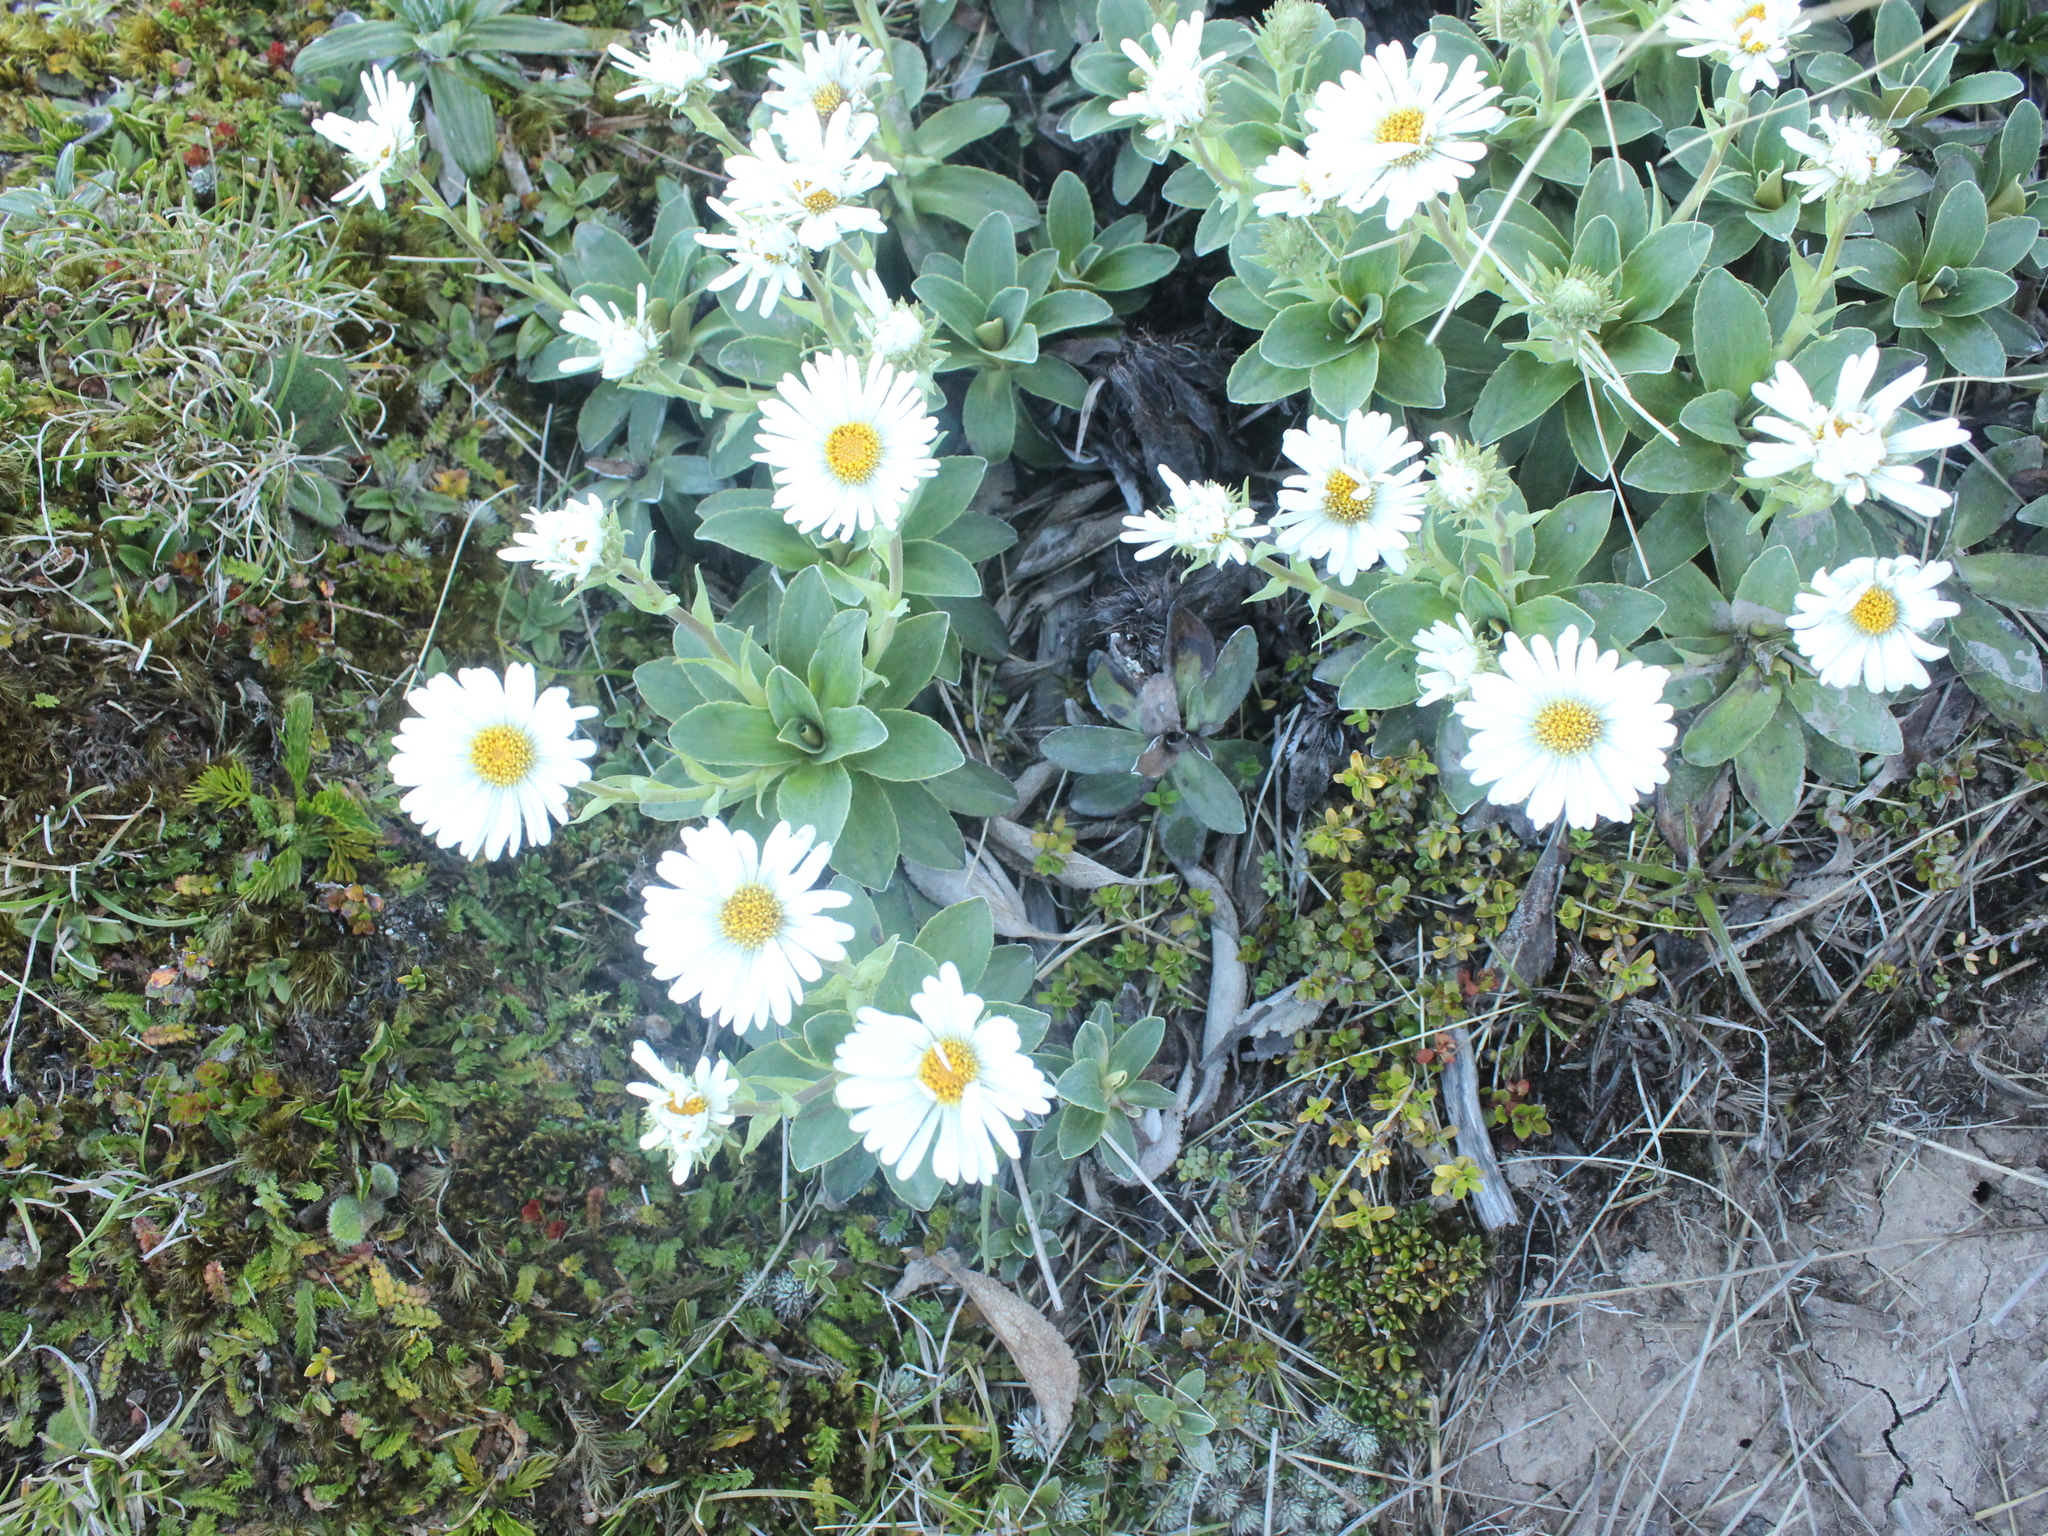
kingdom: Plantae
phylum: Tracheophyta
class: Magnoliopsida
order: Asterales
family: Asteraceae
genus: Celmisia
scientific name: Celmisia hieraciifolia
